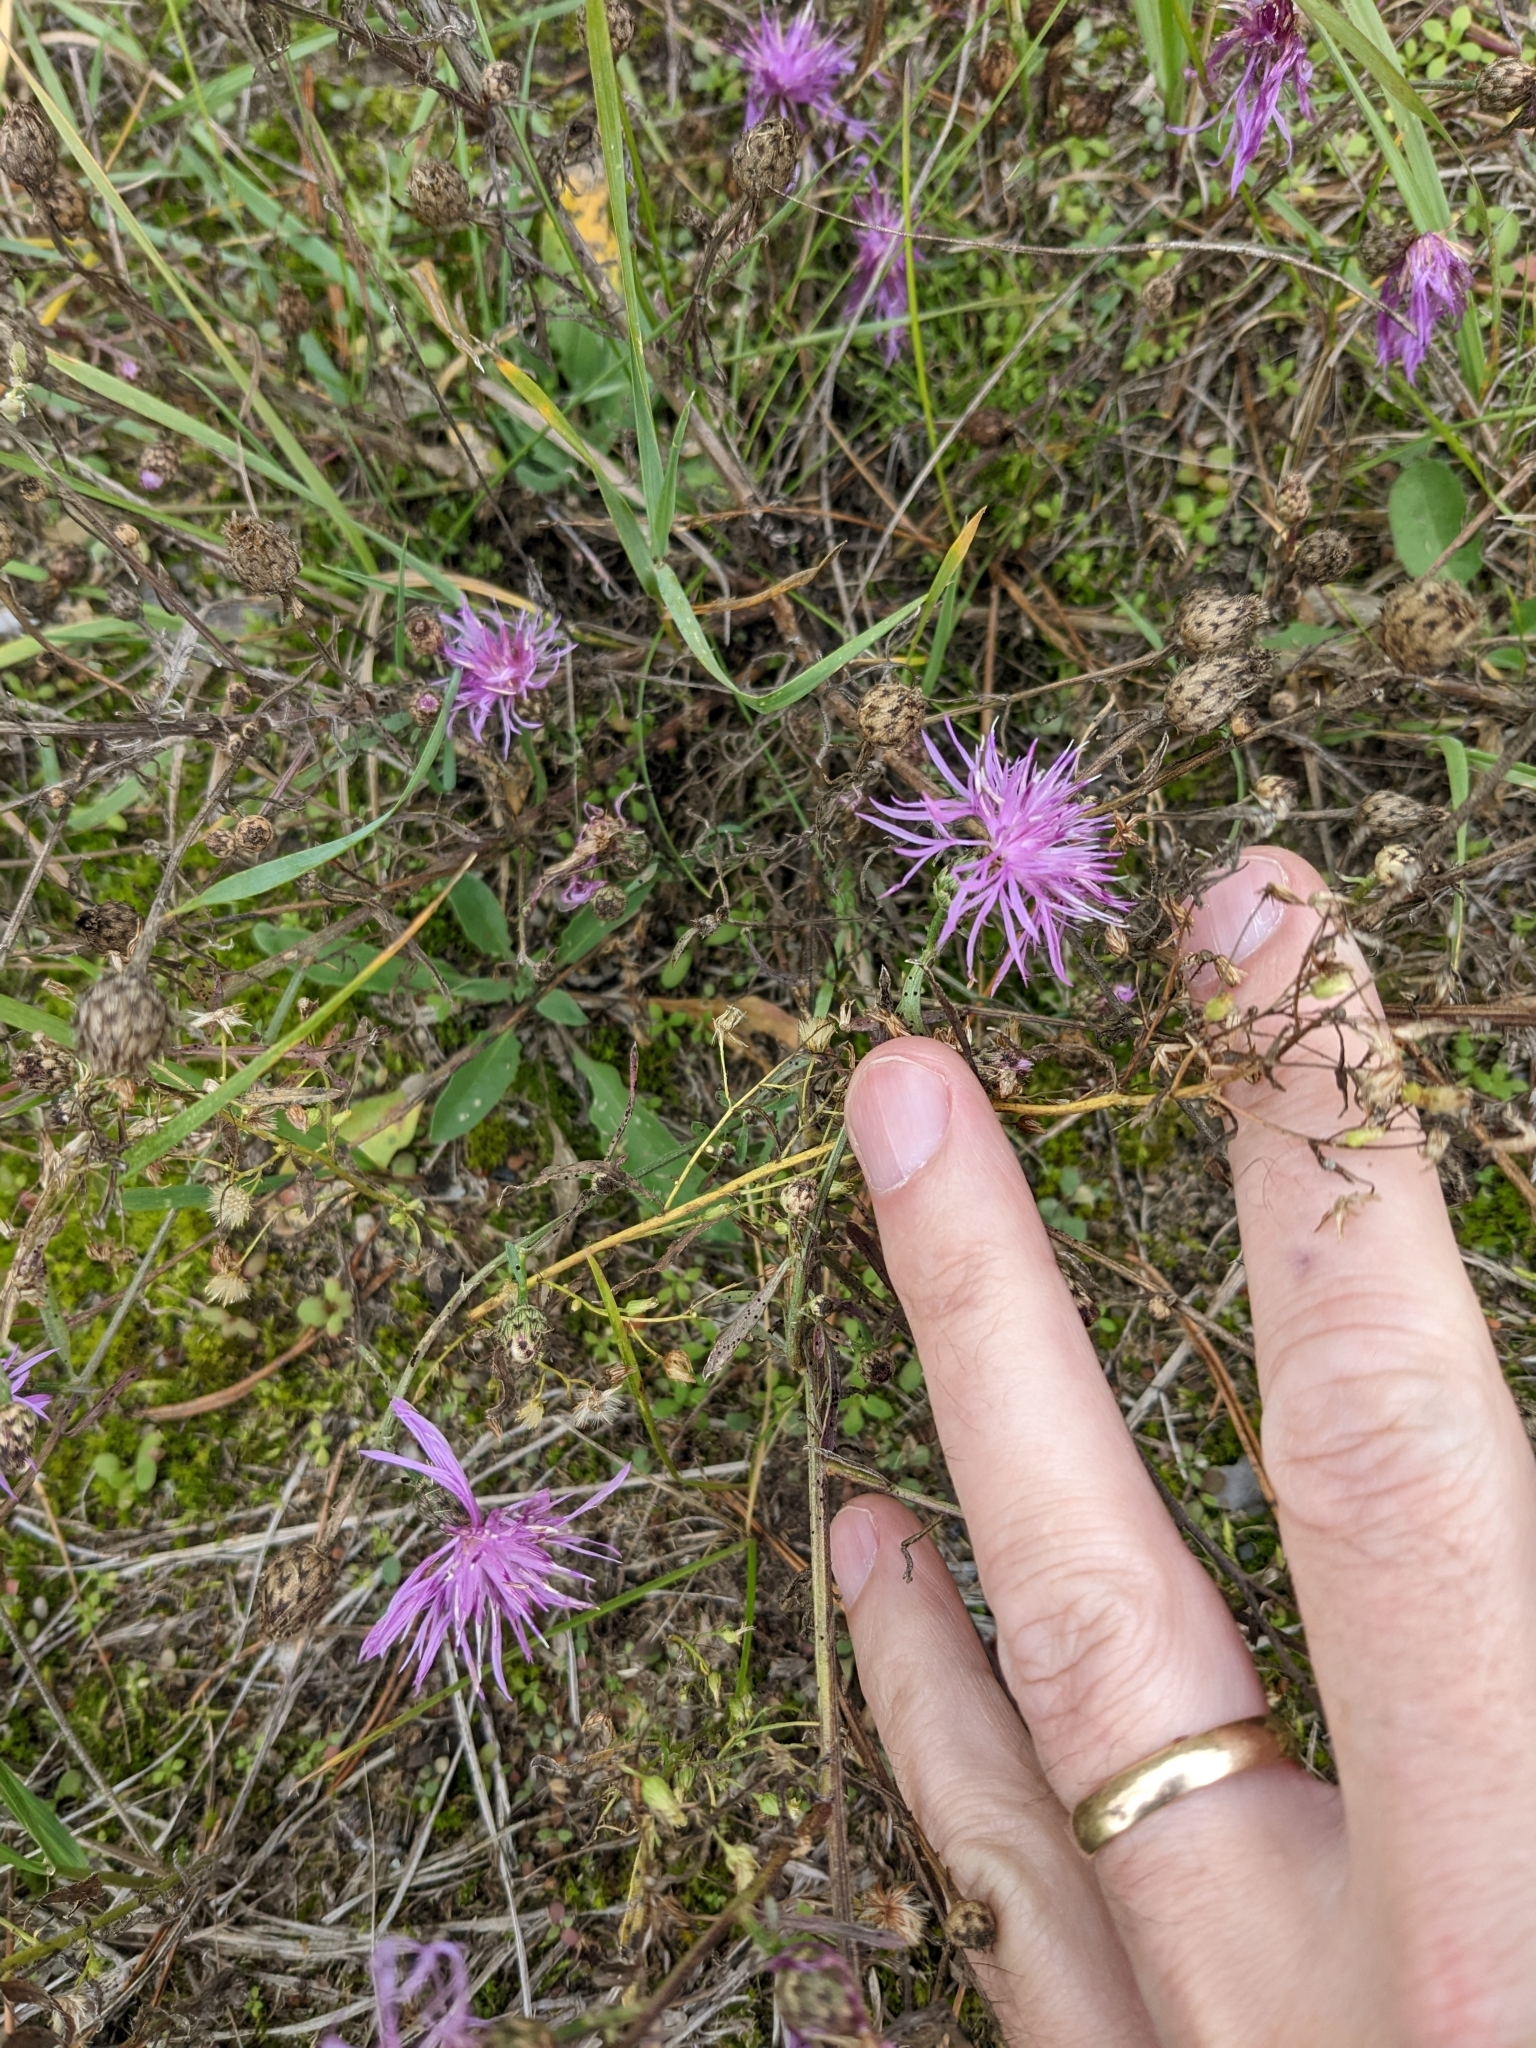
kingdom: Plantae
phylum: Tracheophyta
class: Magnoliopsida
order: Asterales
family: Asteraceae
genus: Centaurea
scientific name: Centaurea stoebe
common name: Spotted knapweed
